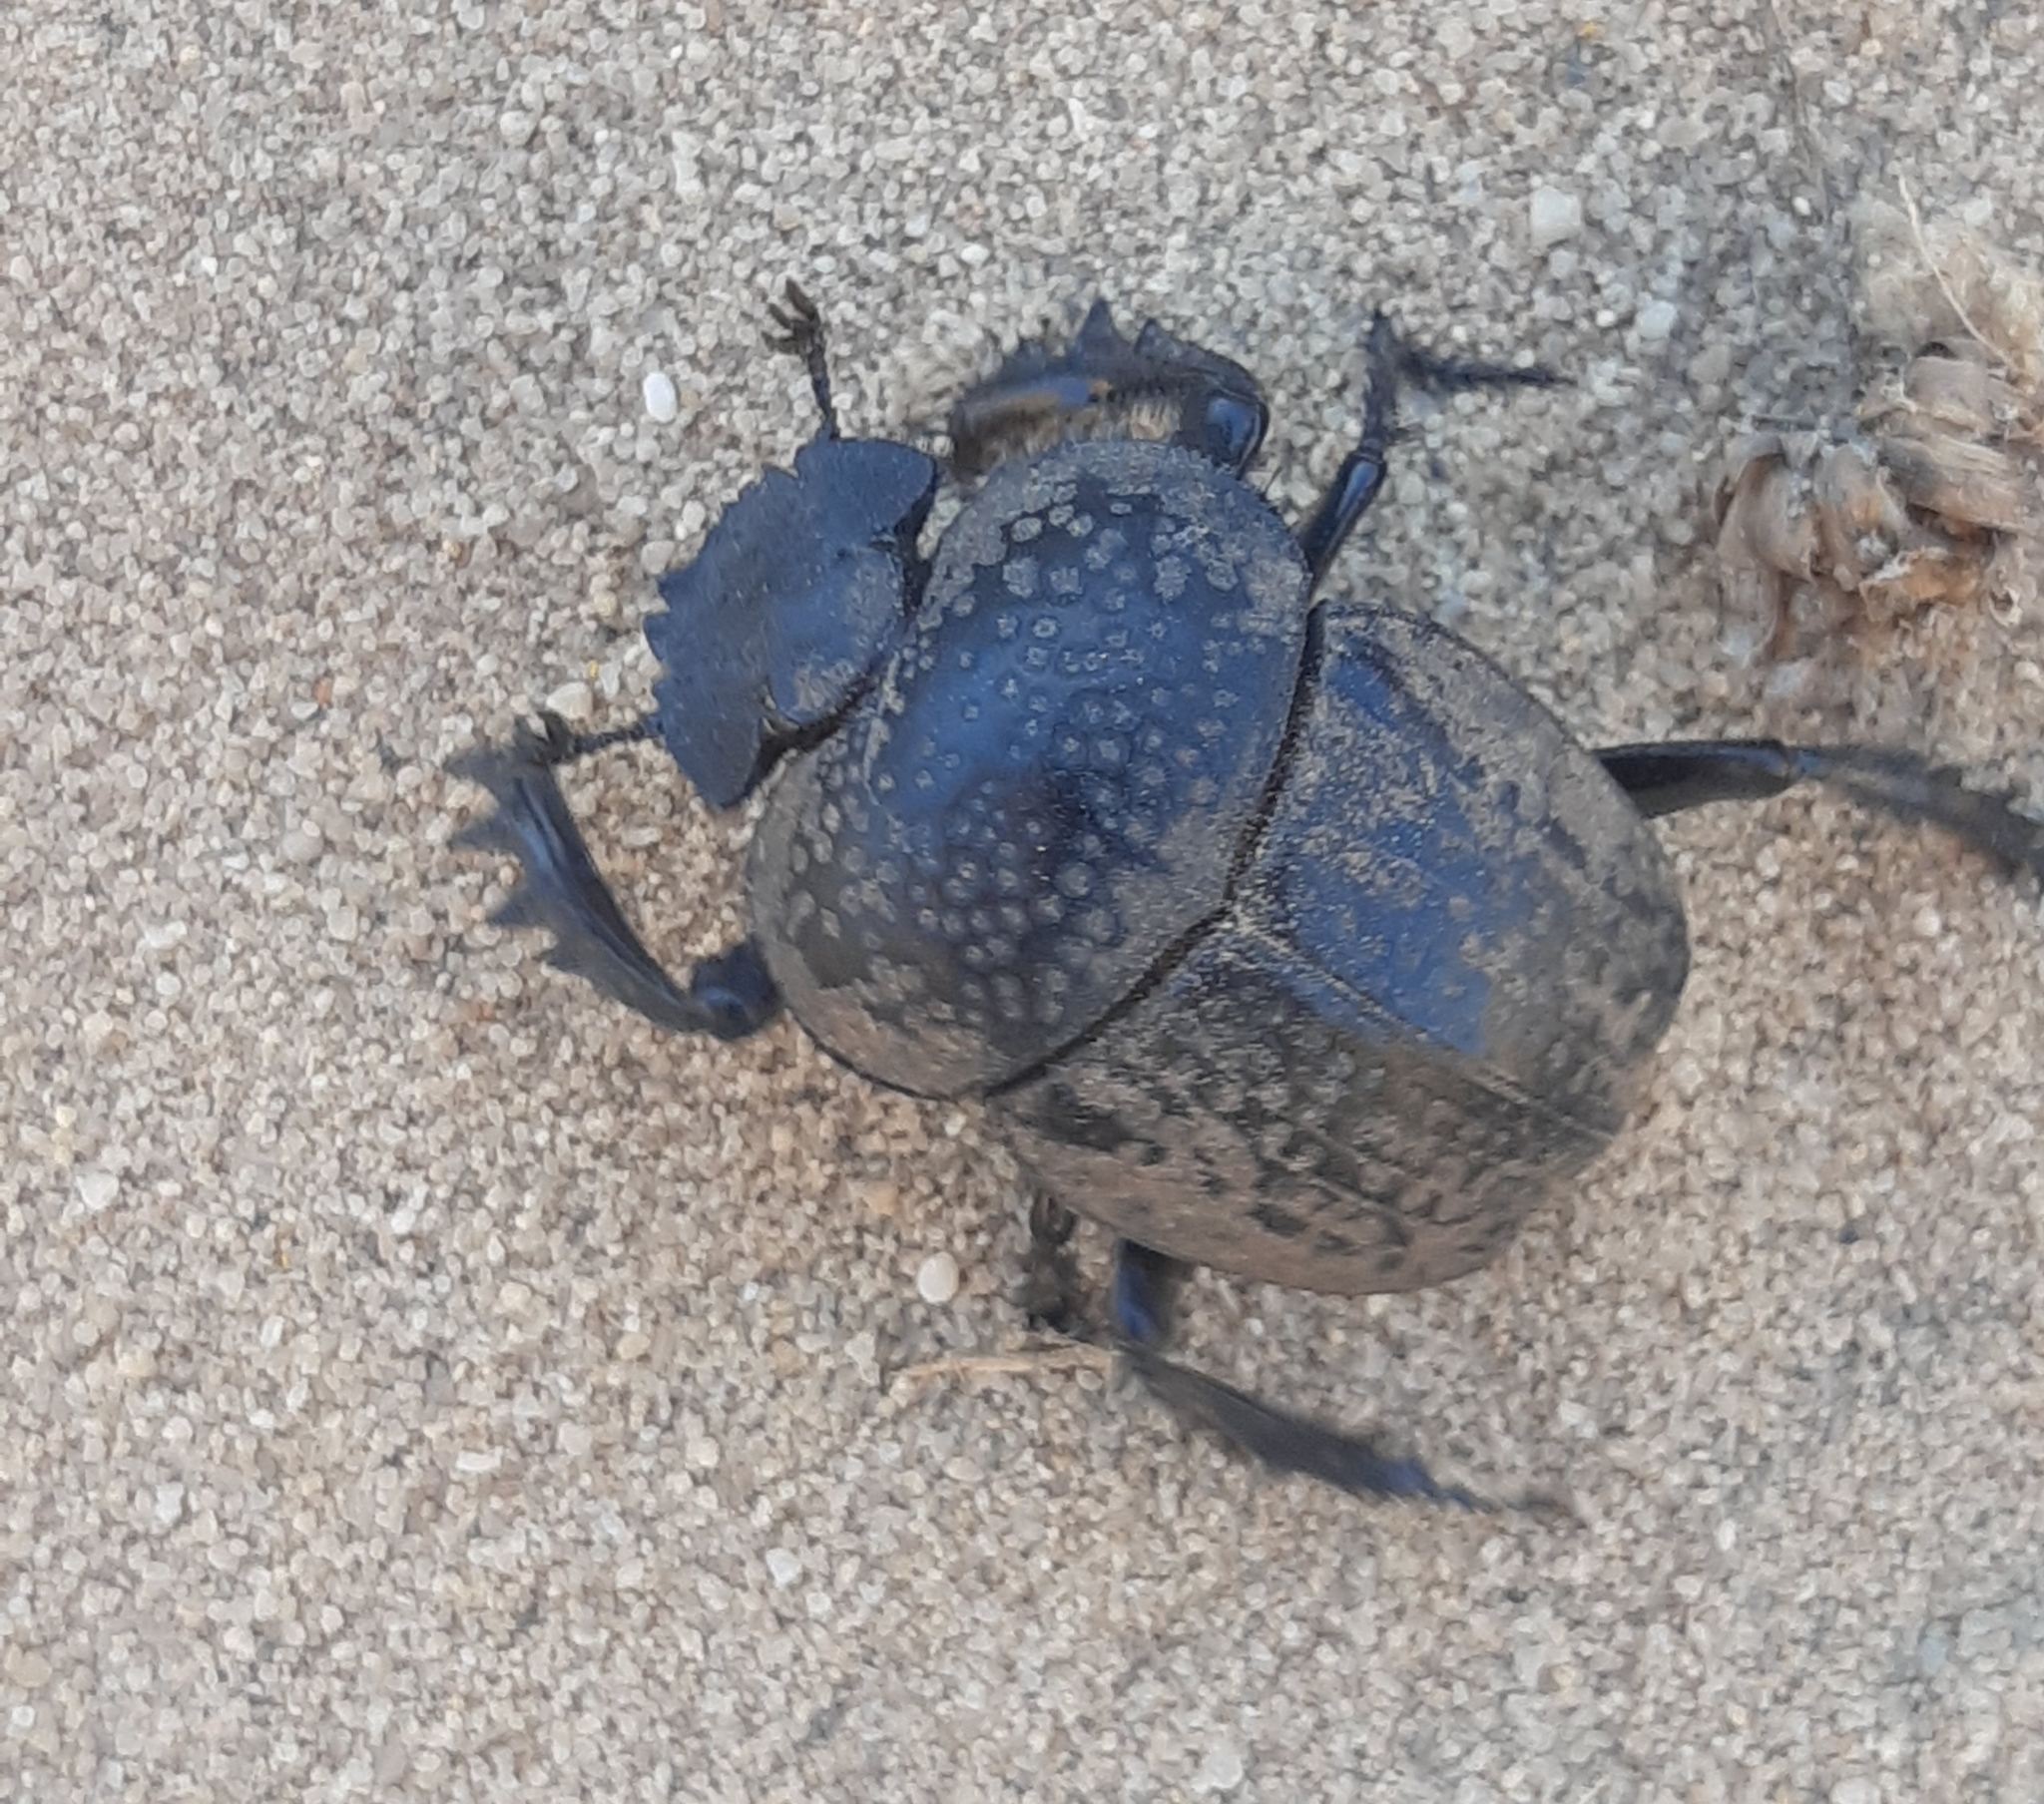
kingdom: Animalia
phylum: Arthropoda
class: Insecta
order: Coleoptera
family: Scarabaeidae
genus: Ateuchetus
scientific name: Ateuchetus cicatricosus
